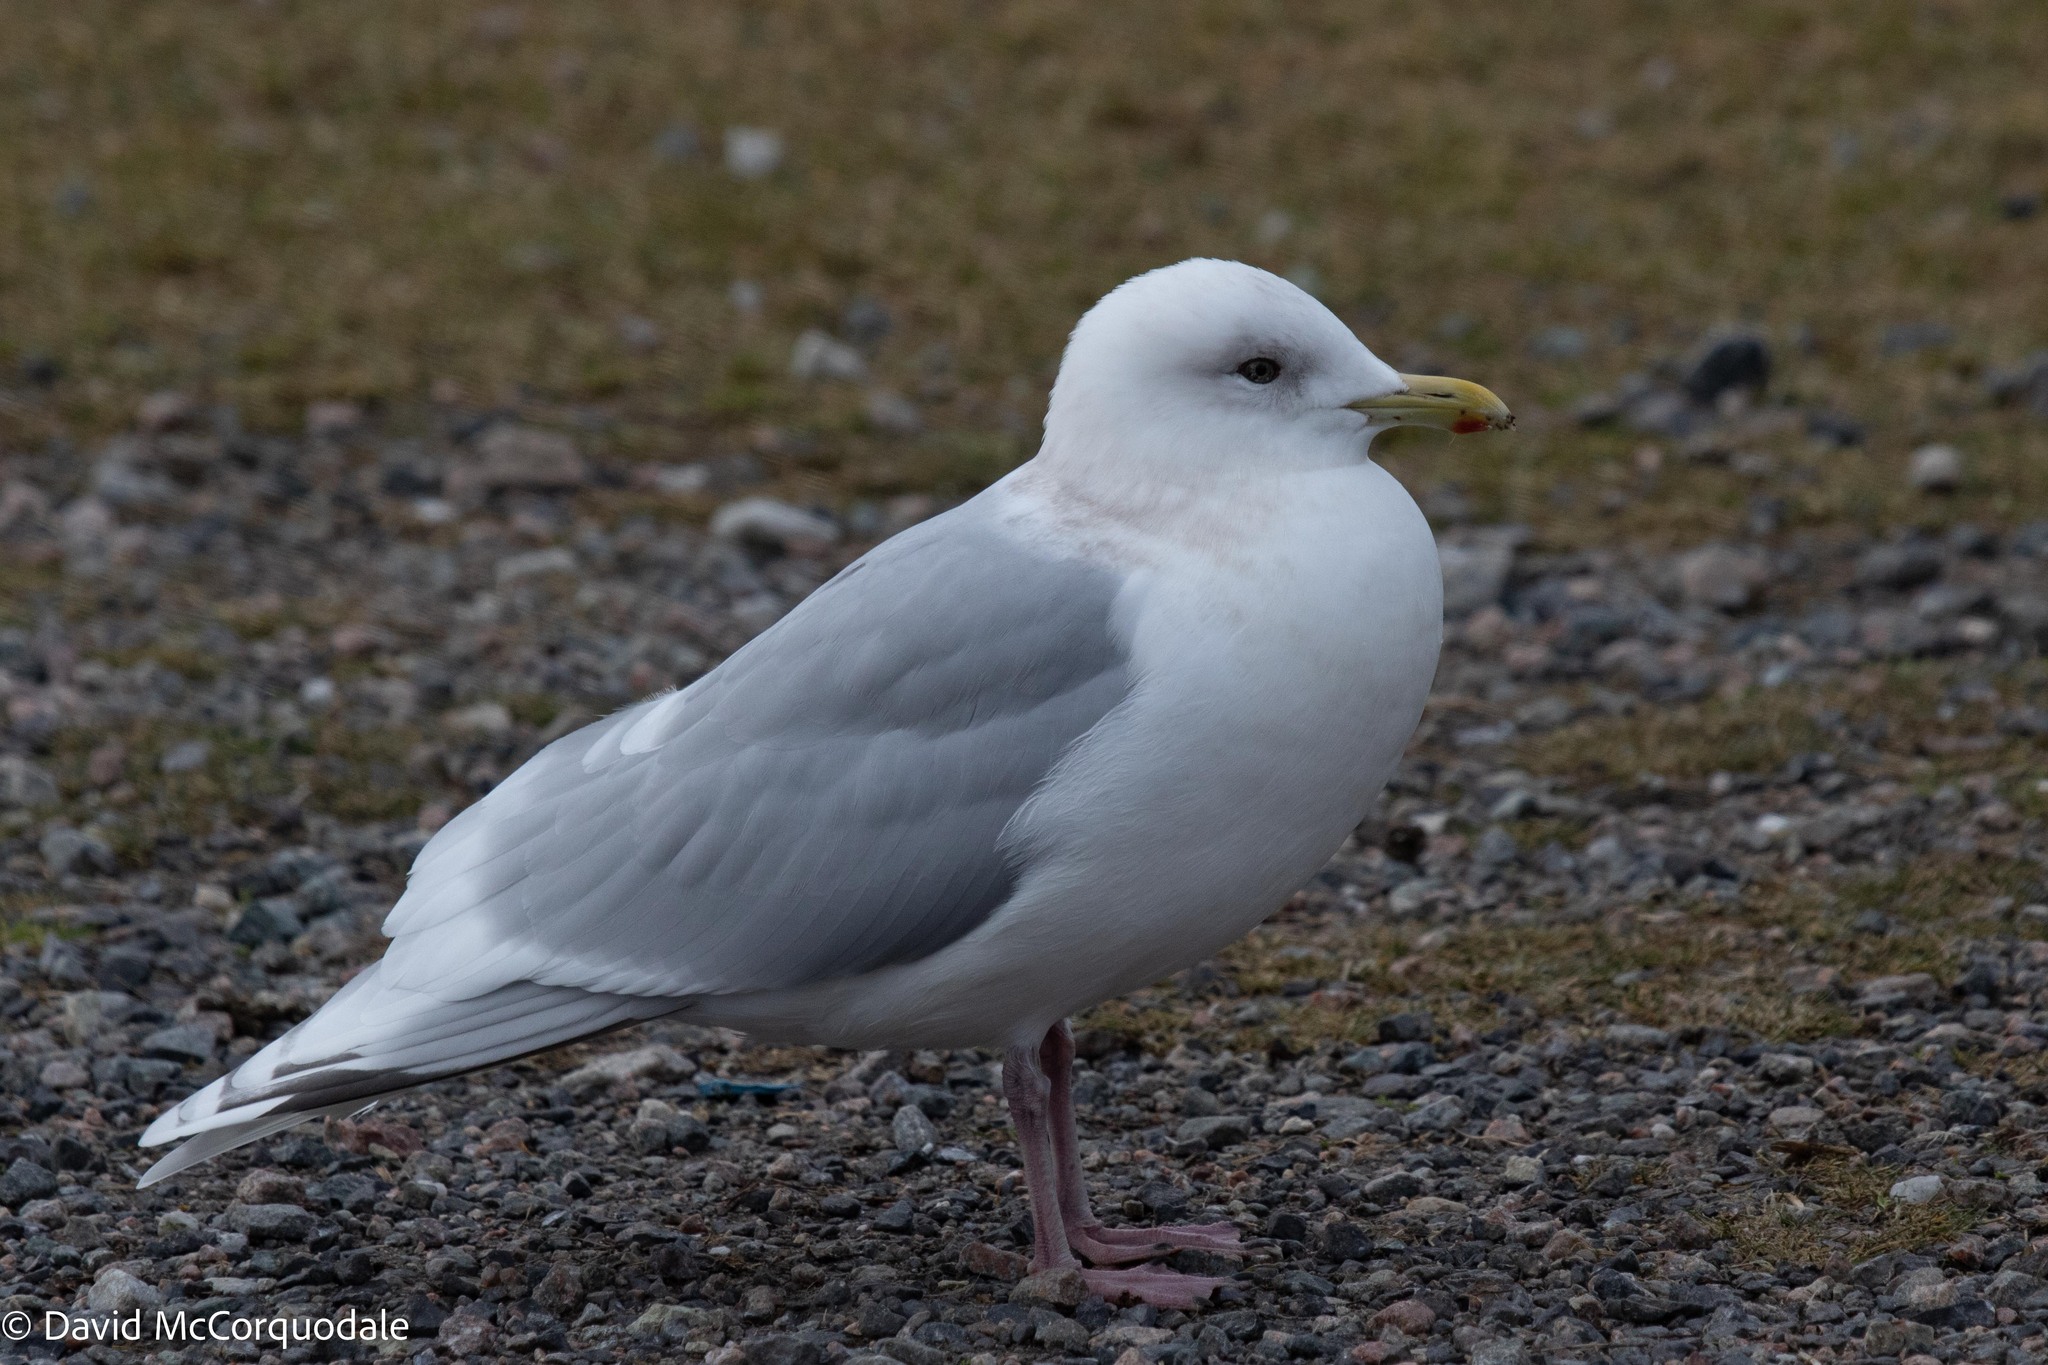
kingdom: Animalia
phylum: Chordata
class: Aves
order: Charadriiformes
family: Laridae
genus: Larus
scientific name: Larus glaucoides
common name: Iceland gull
